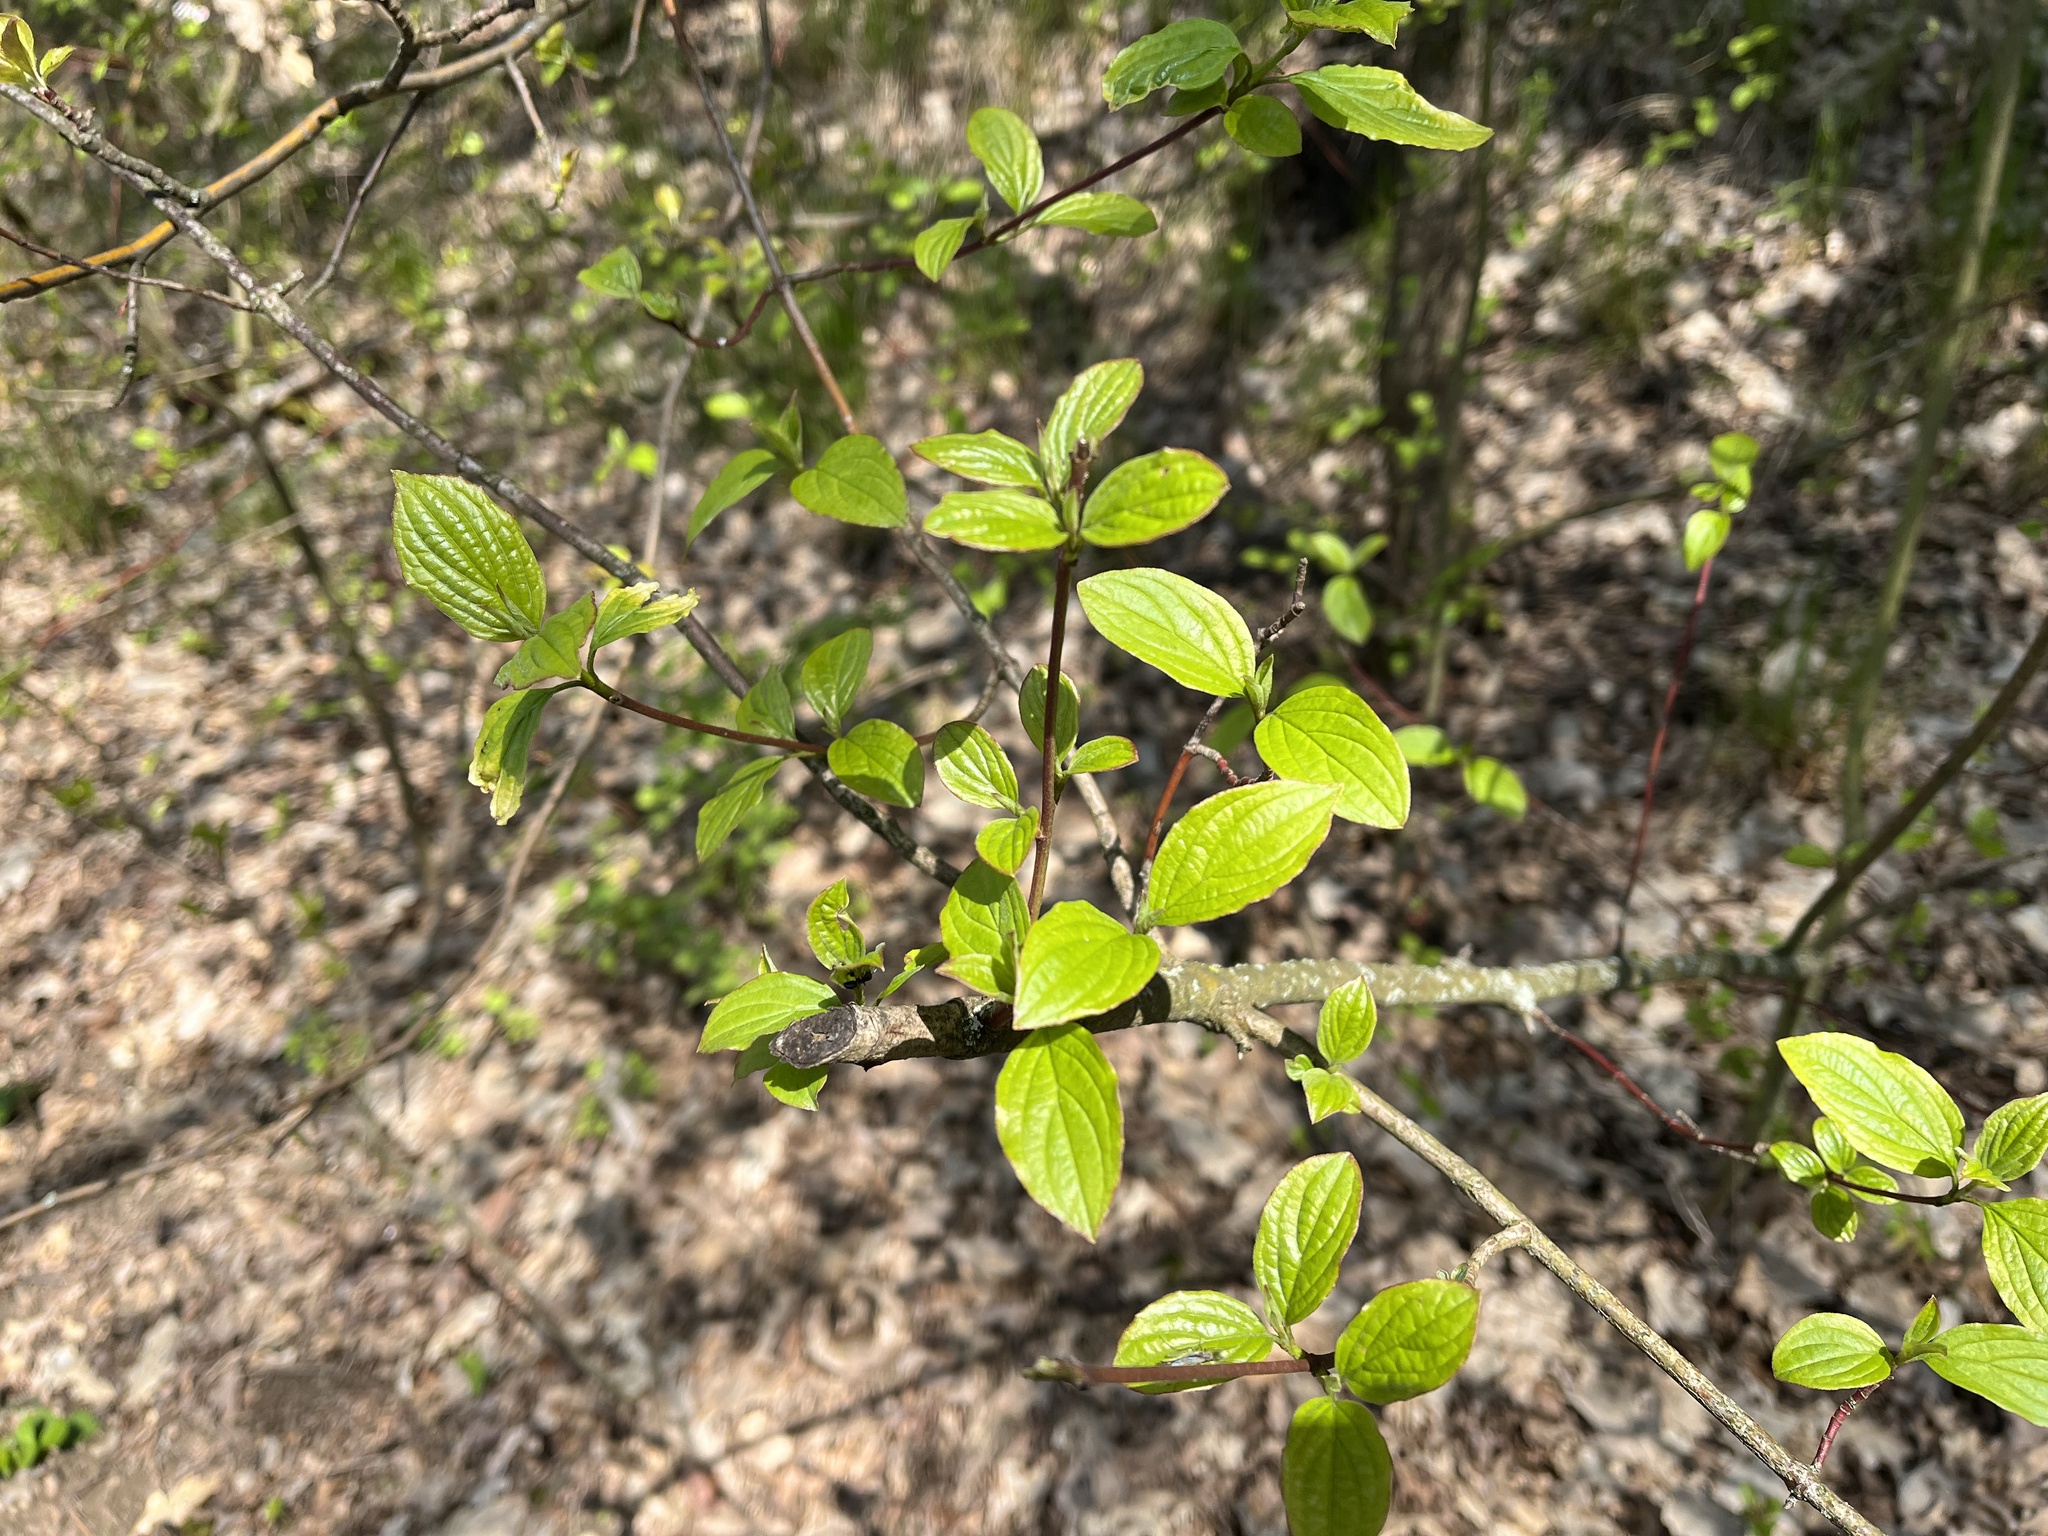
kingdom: Plantae
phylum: Tracheophyta
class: Magnoliopsida
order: Cornales
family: Cornaceae
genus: Cornus
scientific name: Cornus sanguinea
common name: Dogwood
